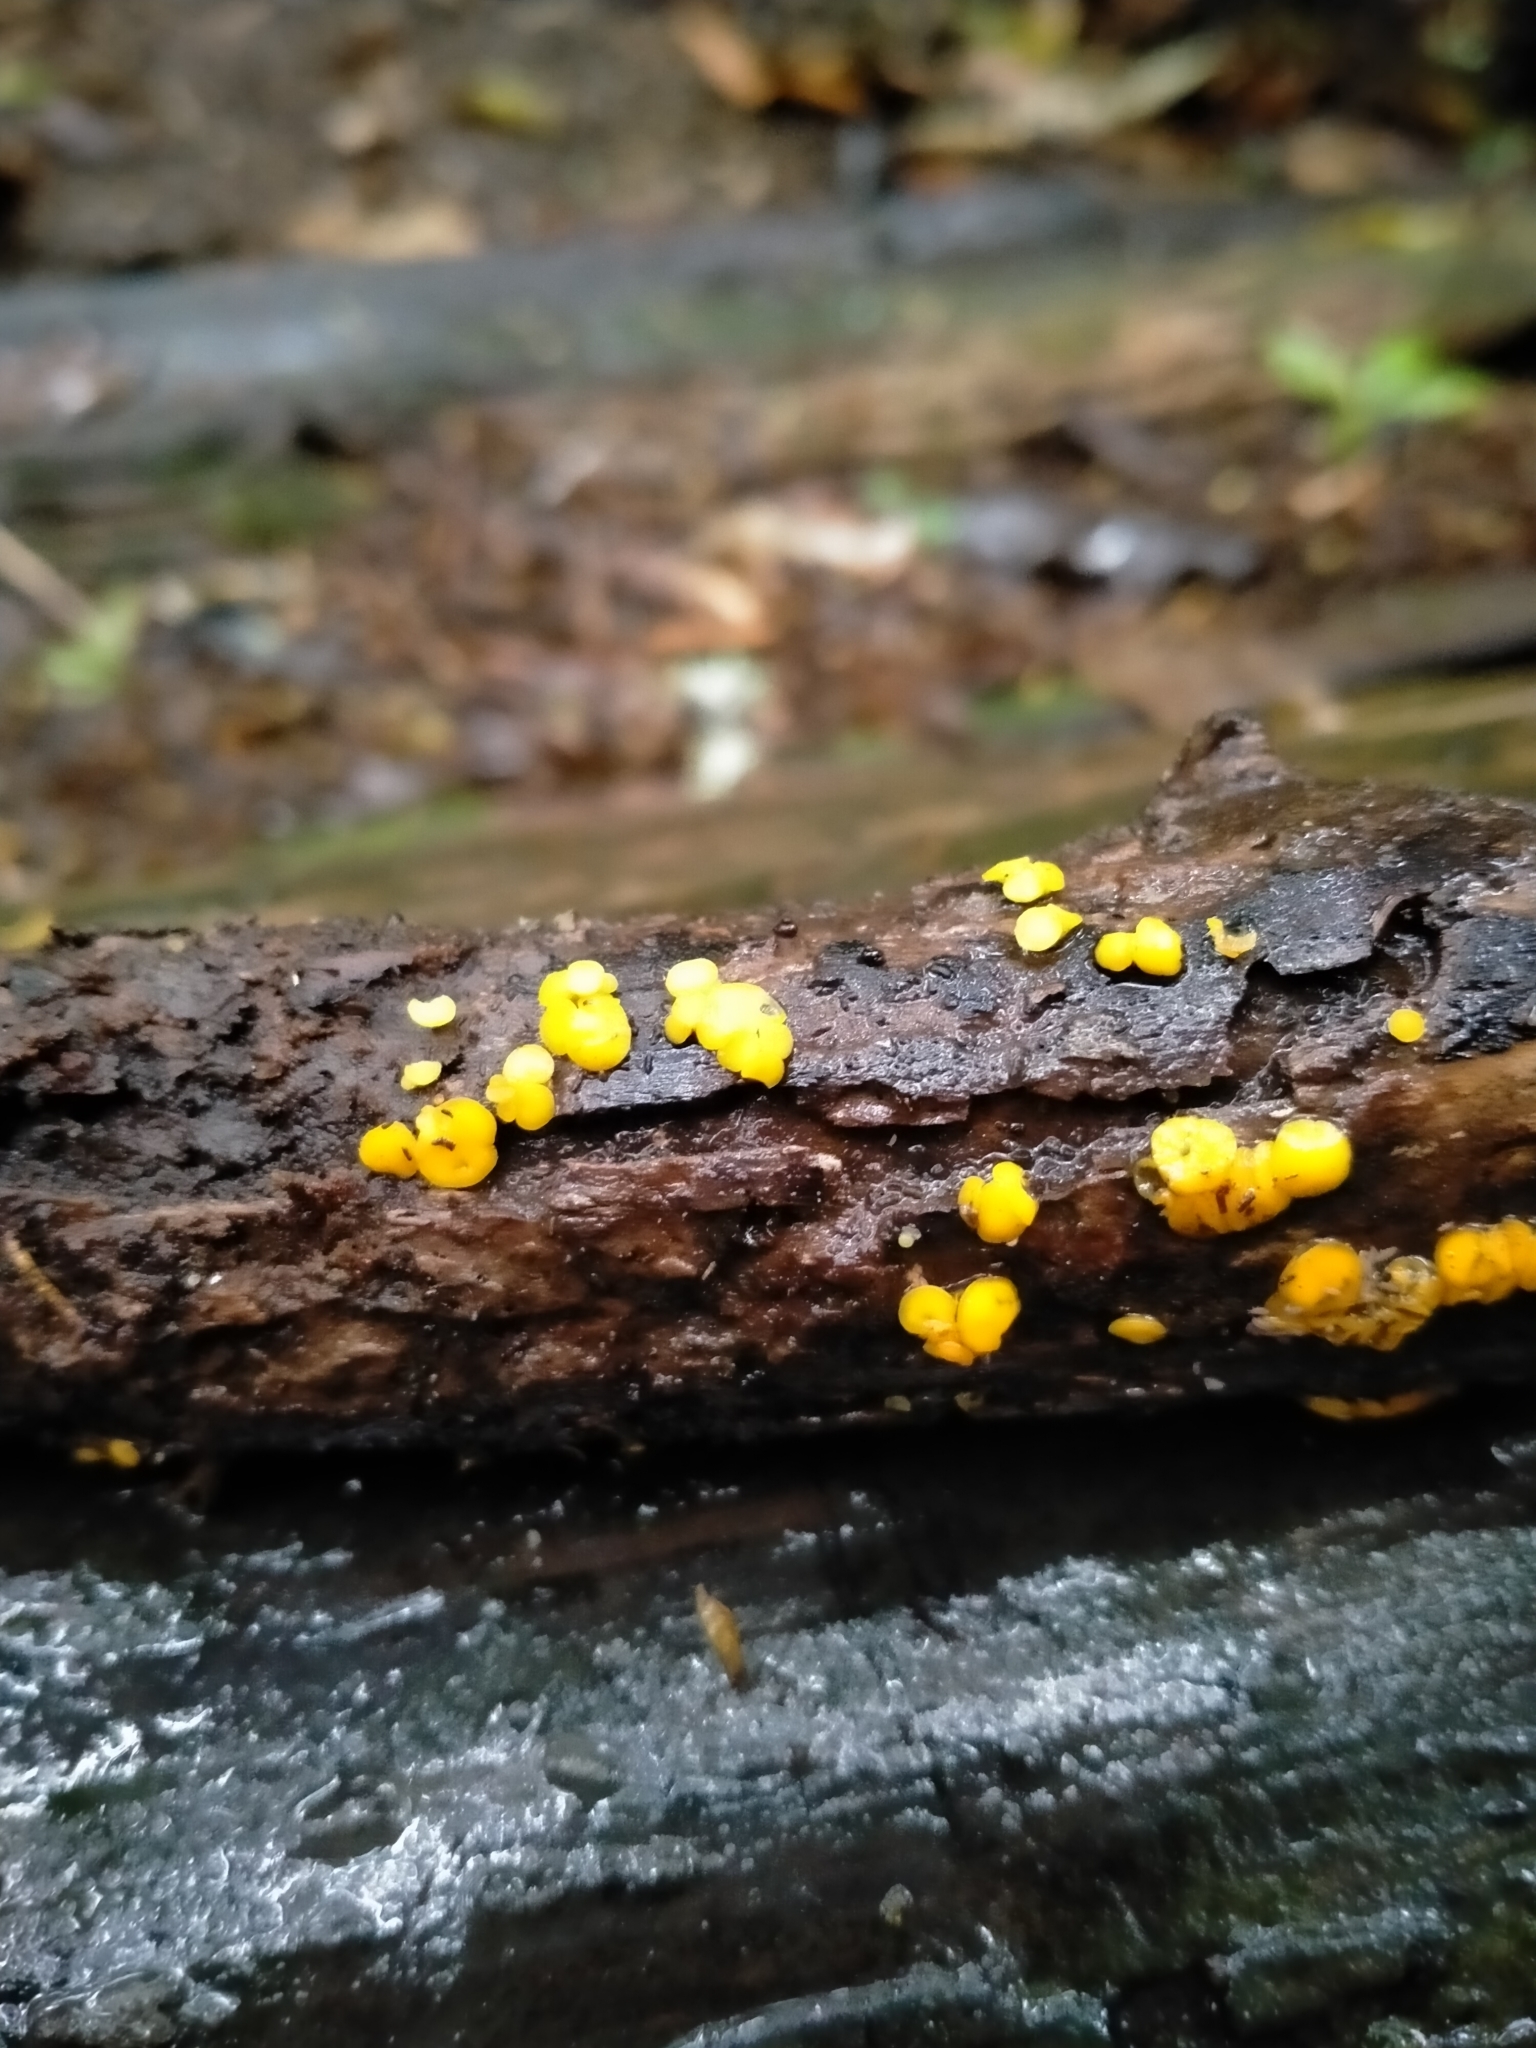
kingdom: Fungi
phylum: Ascomycota
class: Leotiomycetes
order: Helotiales
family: Pezizellaceae
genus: Calycina
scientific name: Calycina citrina
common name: Yellow fairy cups
